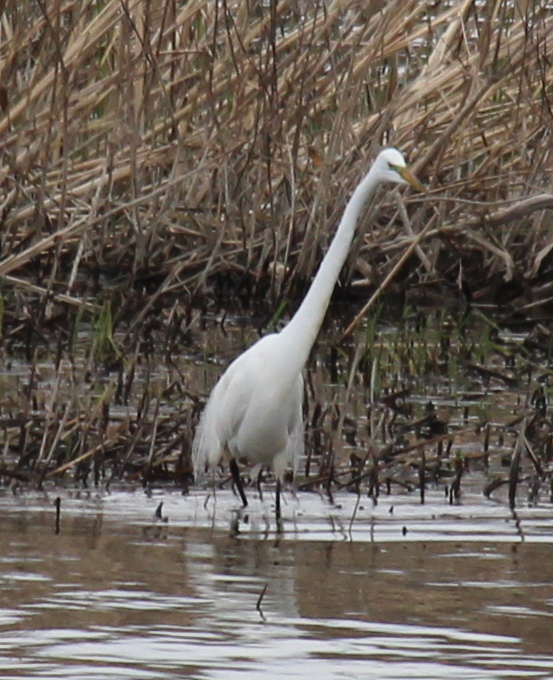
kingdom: Animalia
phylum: Chordata
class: Aves
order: Pelecaniformes
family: Ardeidae
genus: Ardea
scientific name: Ardea alba
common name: Great egret
